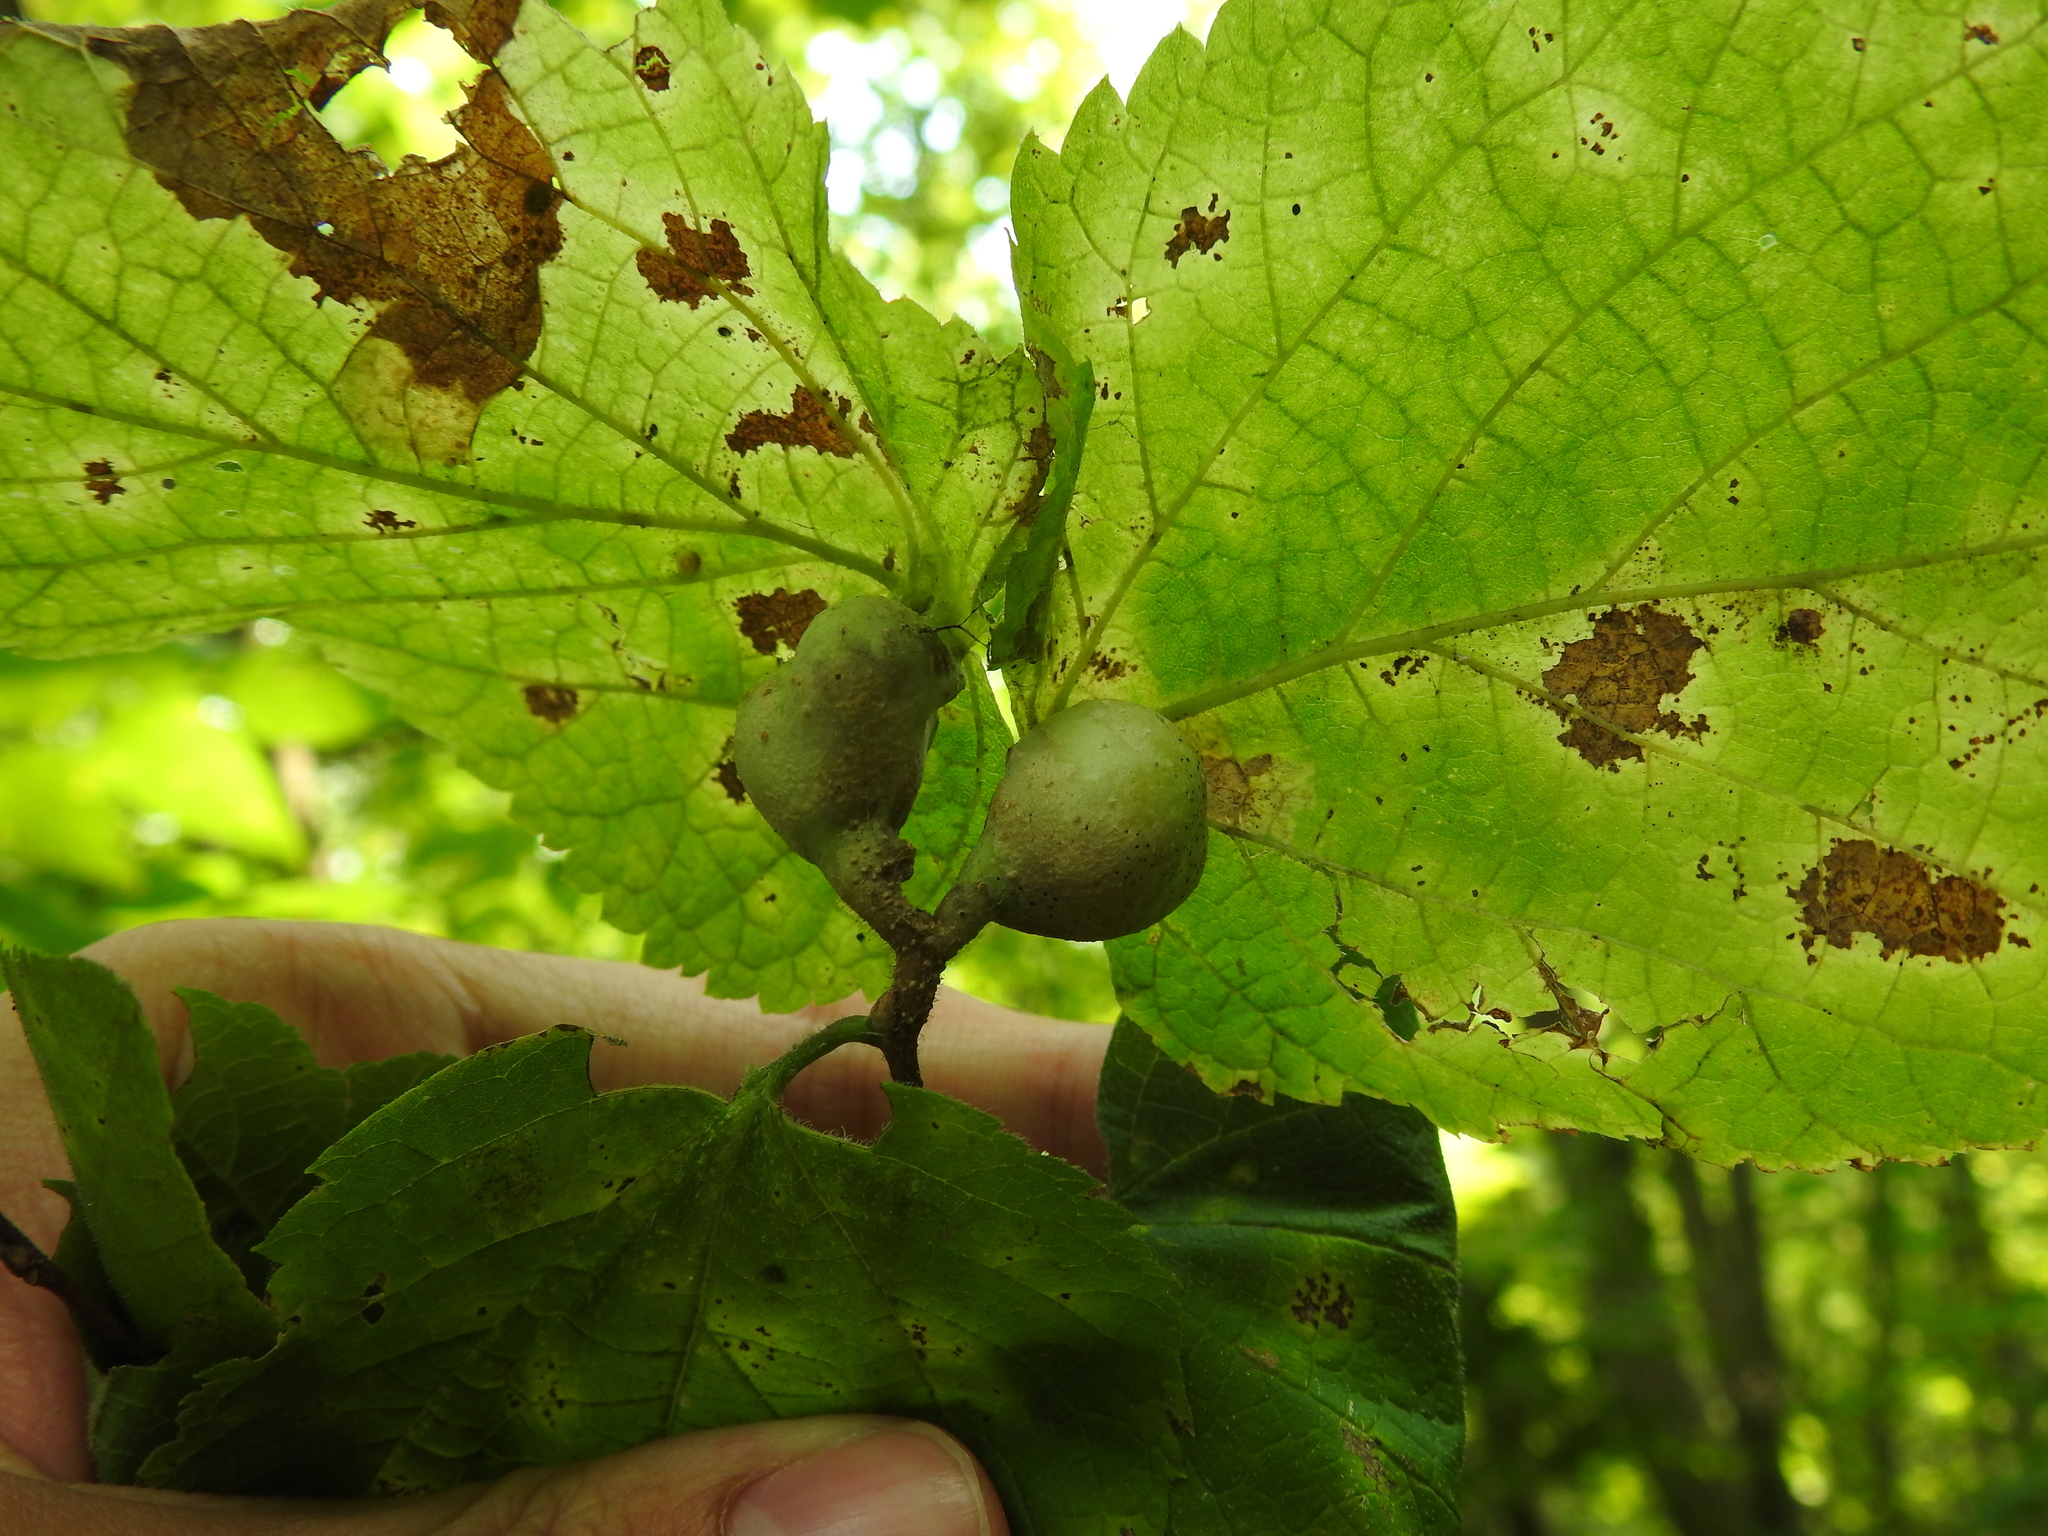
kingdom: Animalia
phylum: Arthropoda
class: Insecta
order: Hemiptera
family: Aphalaridae
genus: Pachypsylla
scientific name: Pachypsylla venusta
